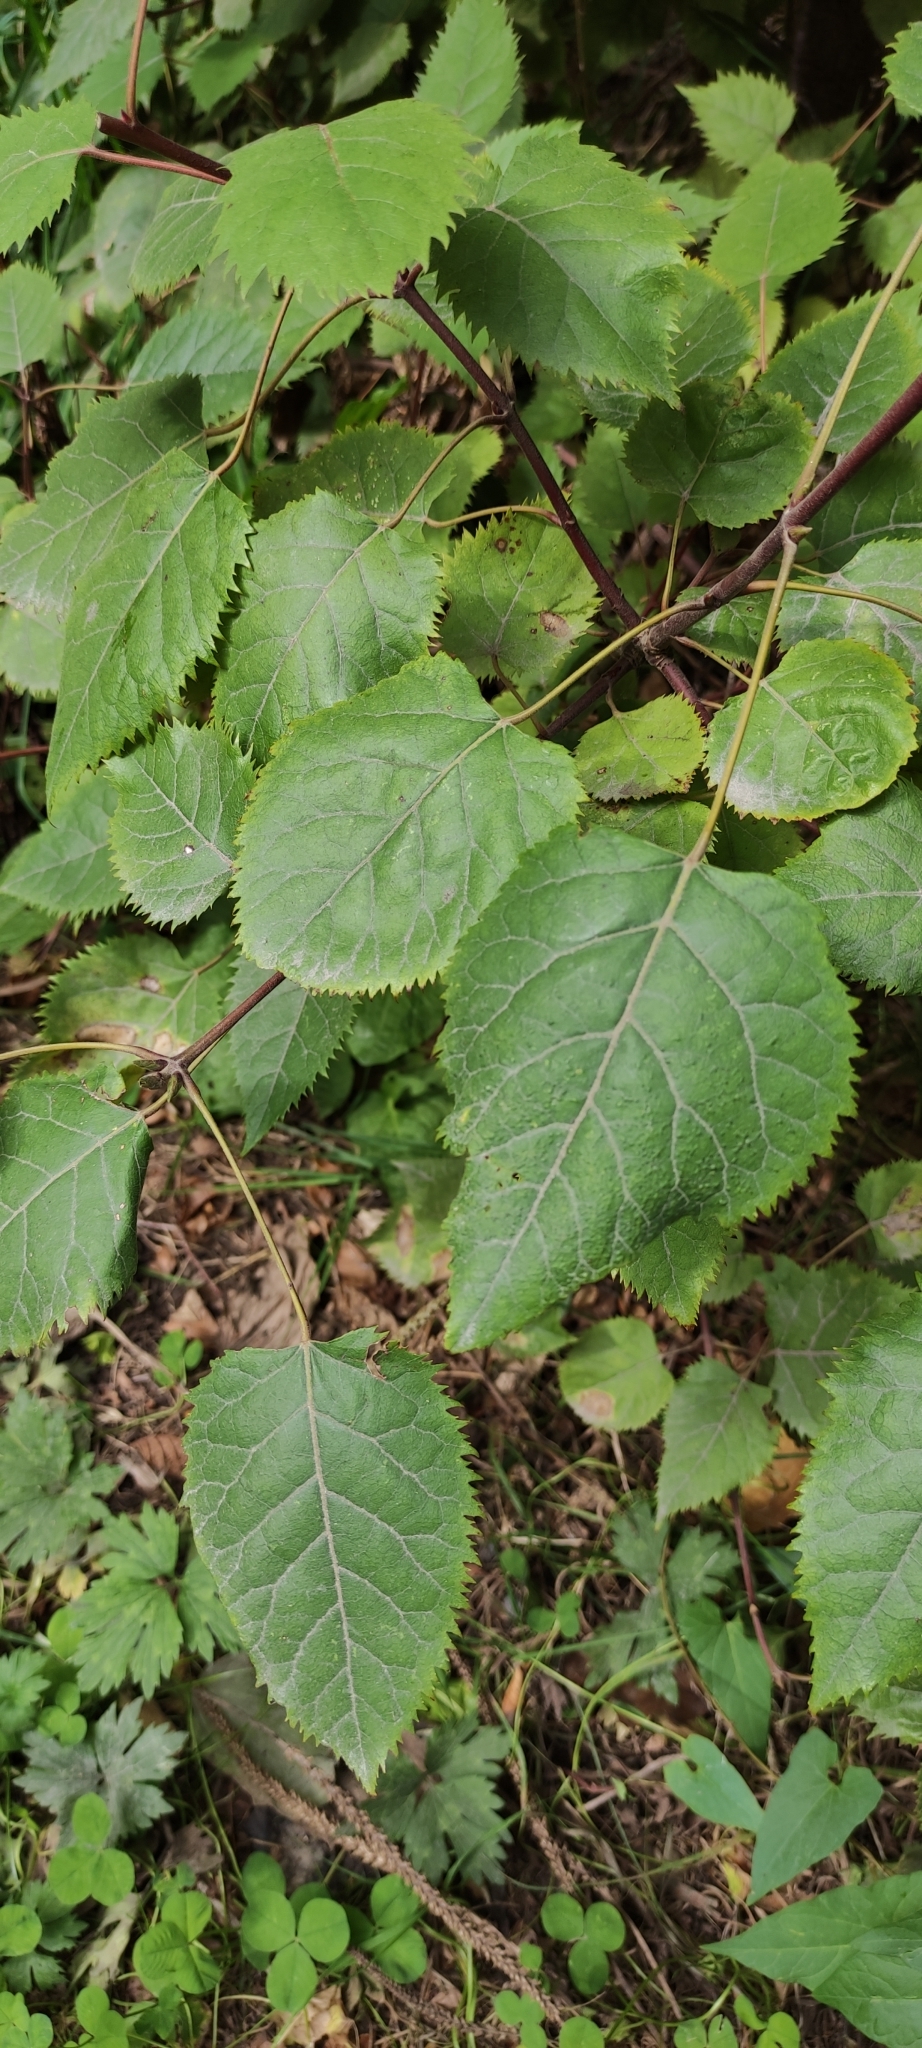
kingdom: Plantae
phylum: Tracheophyta
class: Magnoliopsida
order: Oxalidales
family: Elaeocarpaceae
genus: Aristotelia
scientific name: Aristotelia serrata
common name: New zealand wineberry
